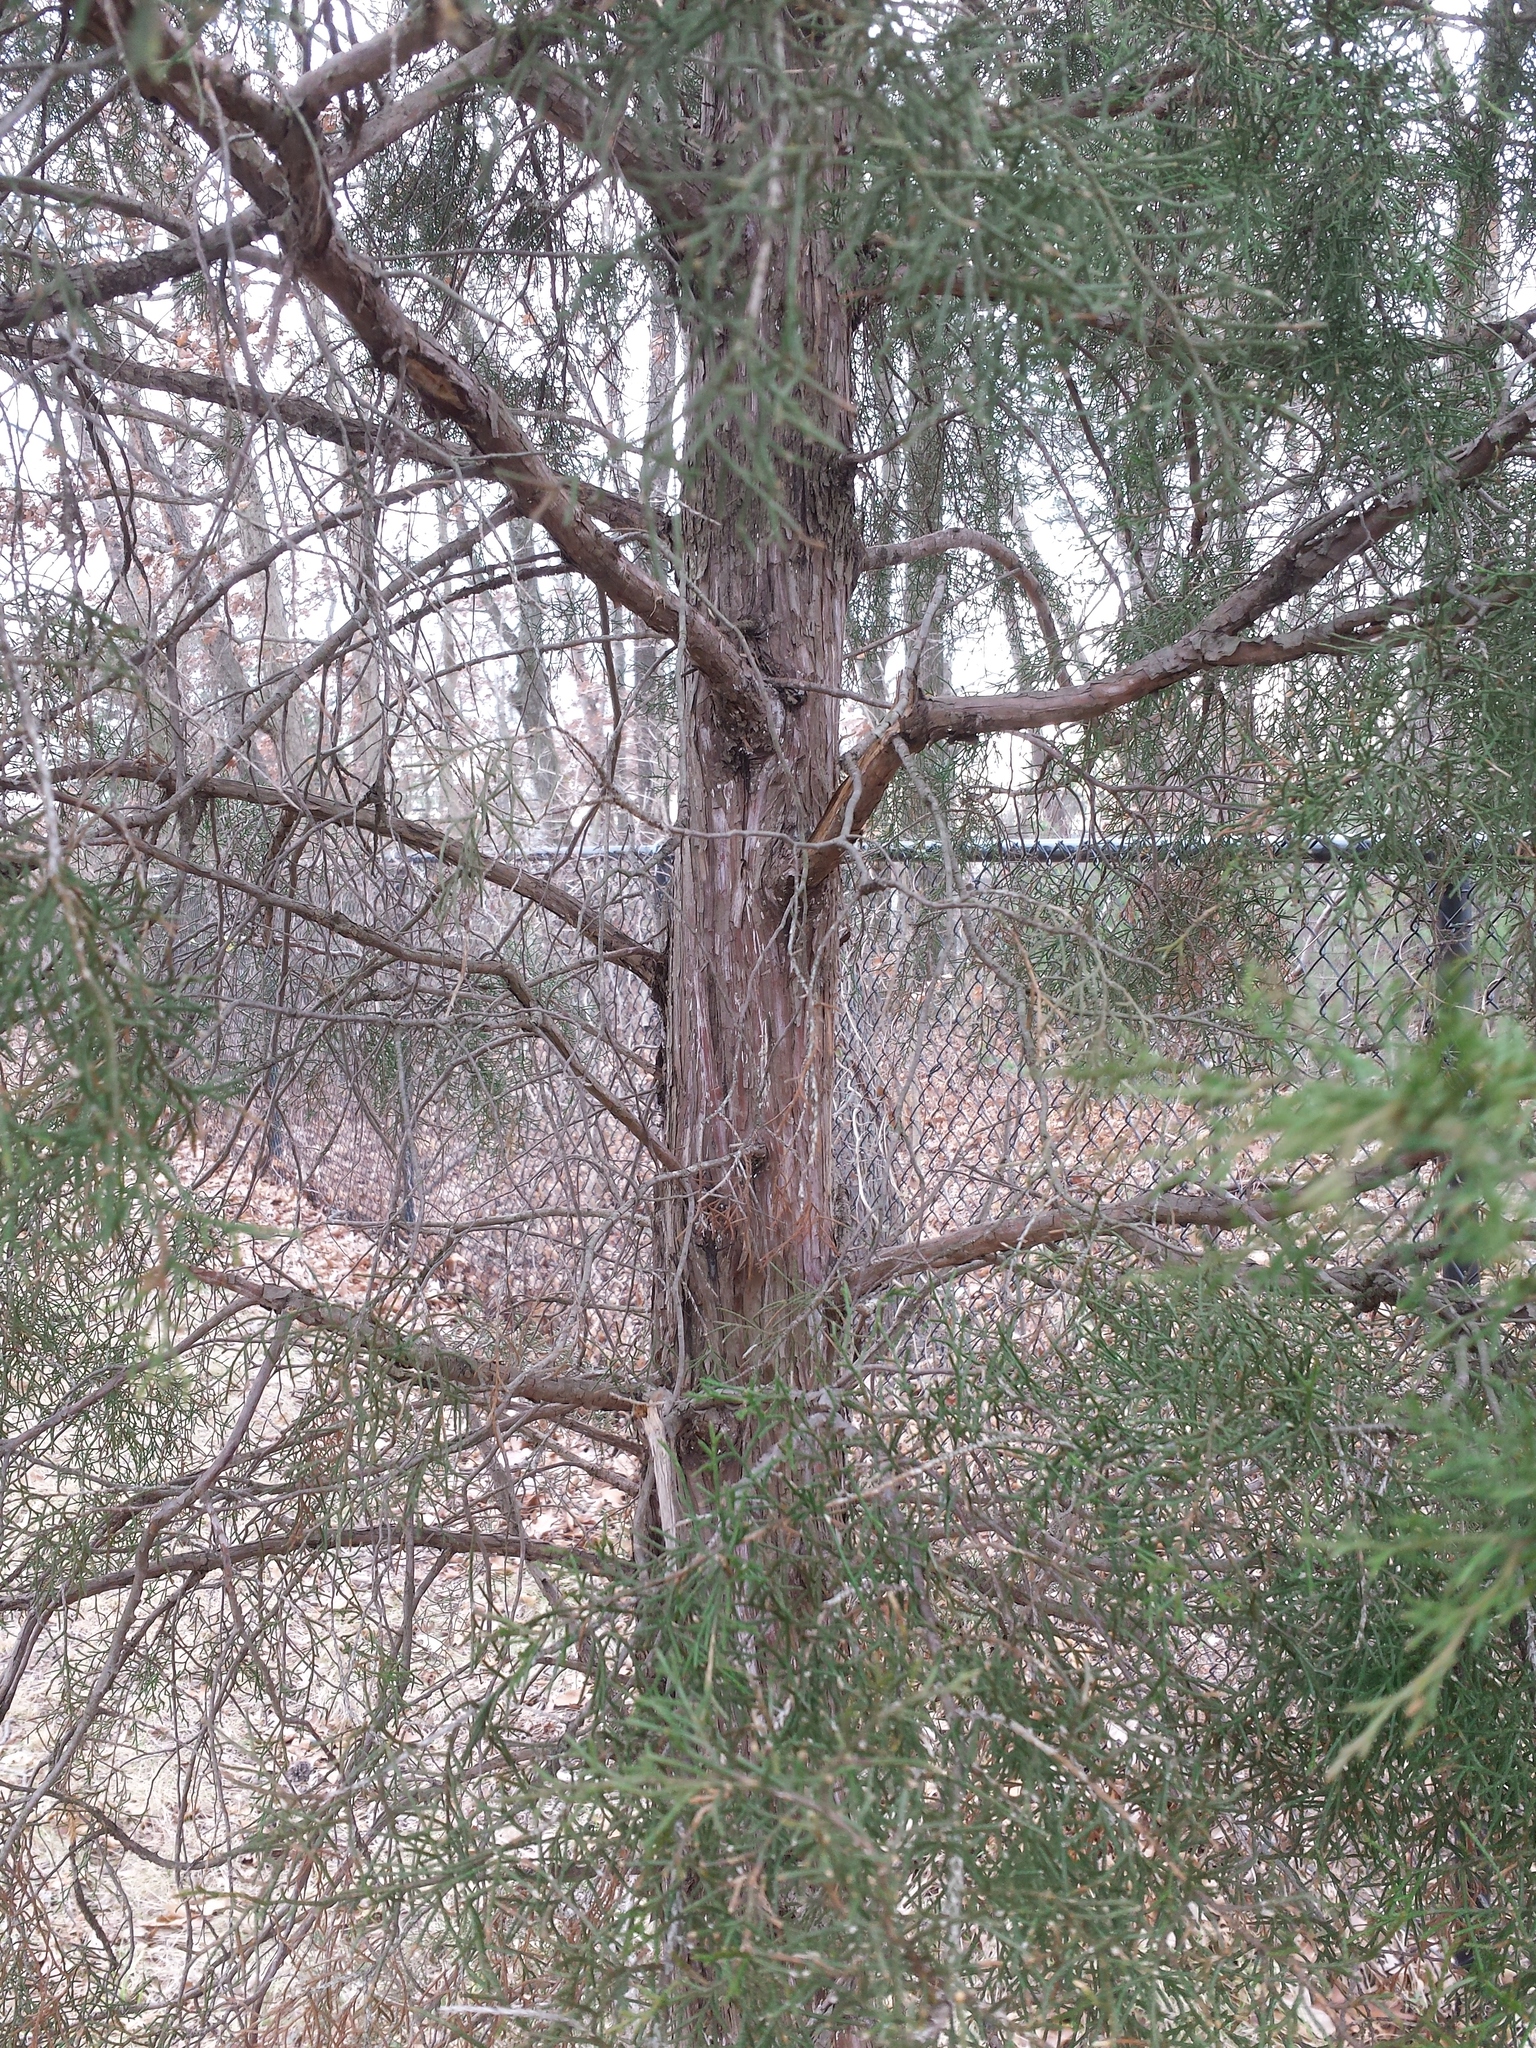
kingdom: Plantae
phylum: Tracheophyta
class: Pinopsida
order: Pinales
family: Cupressaceae
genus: Juniperus
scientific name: Juniperus virginiana
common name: Red juniper
